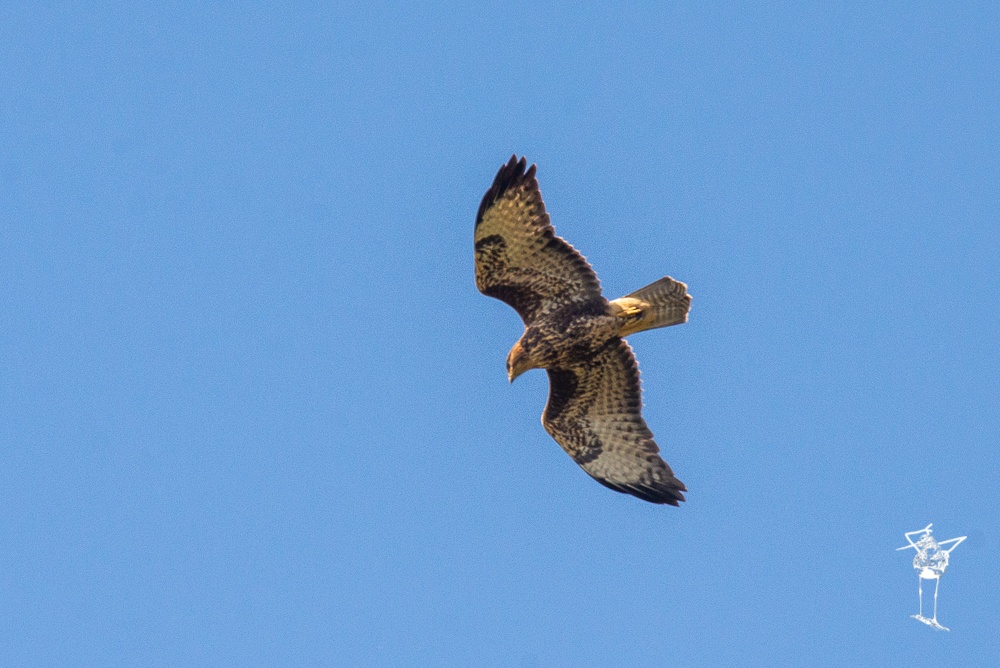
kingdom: Animalia
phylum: Chordata
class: Aves
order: Accipitriformes
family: Accipitridae
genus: Buteo
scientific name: Buteo buteo
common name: Common buzzard
